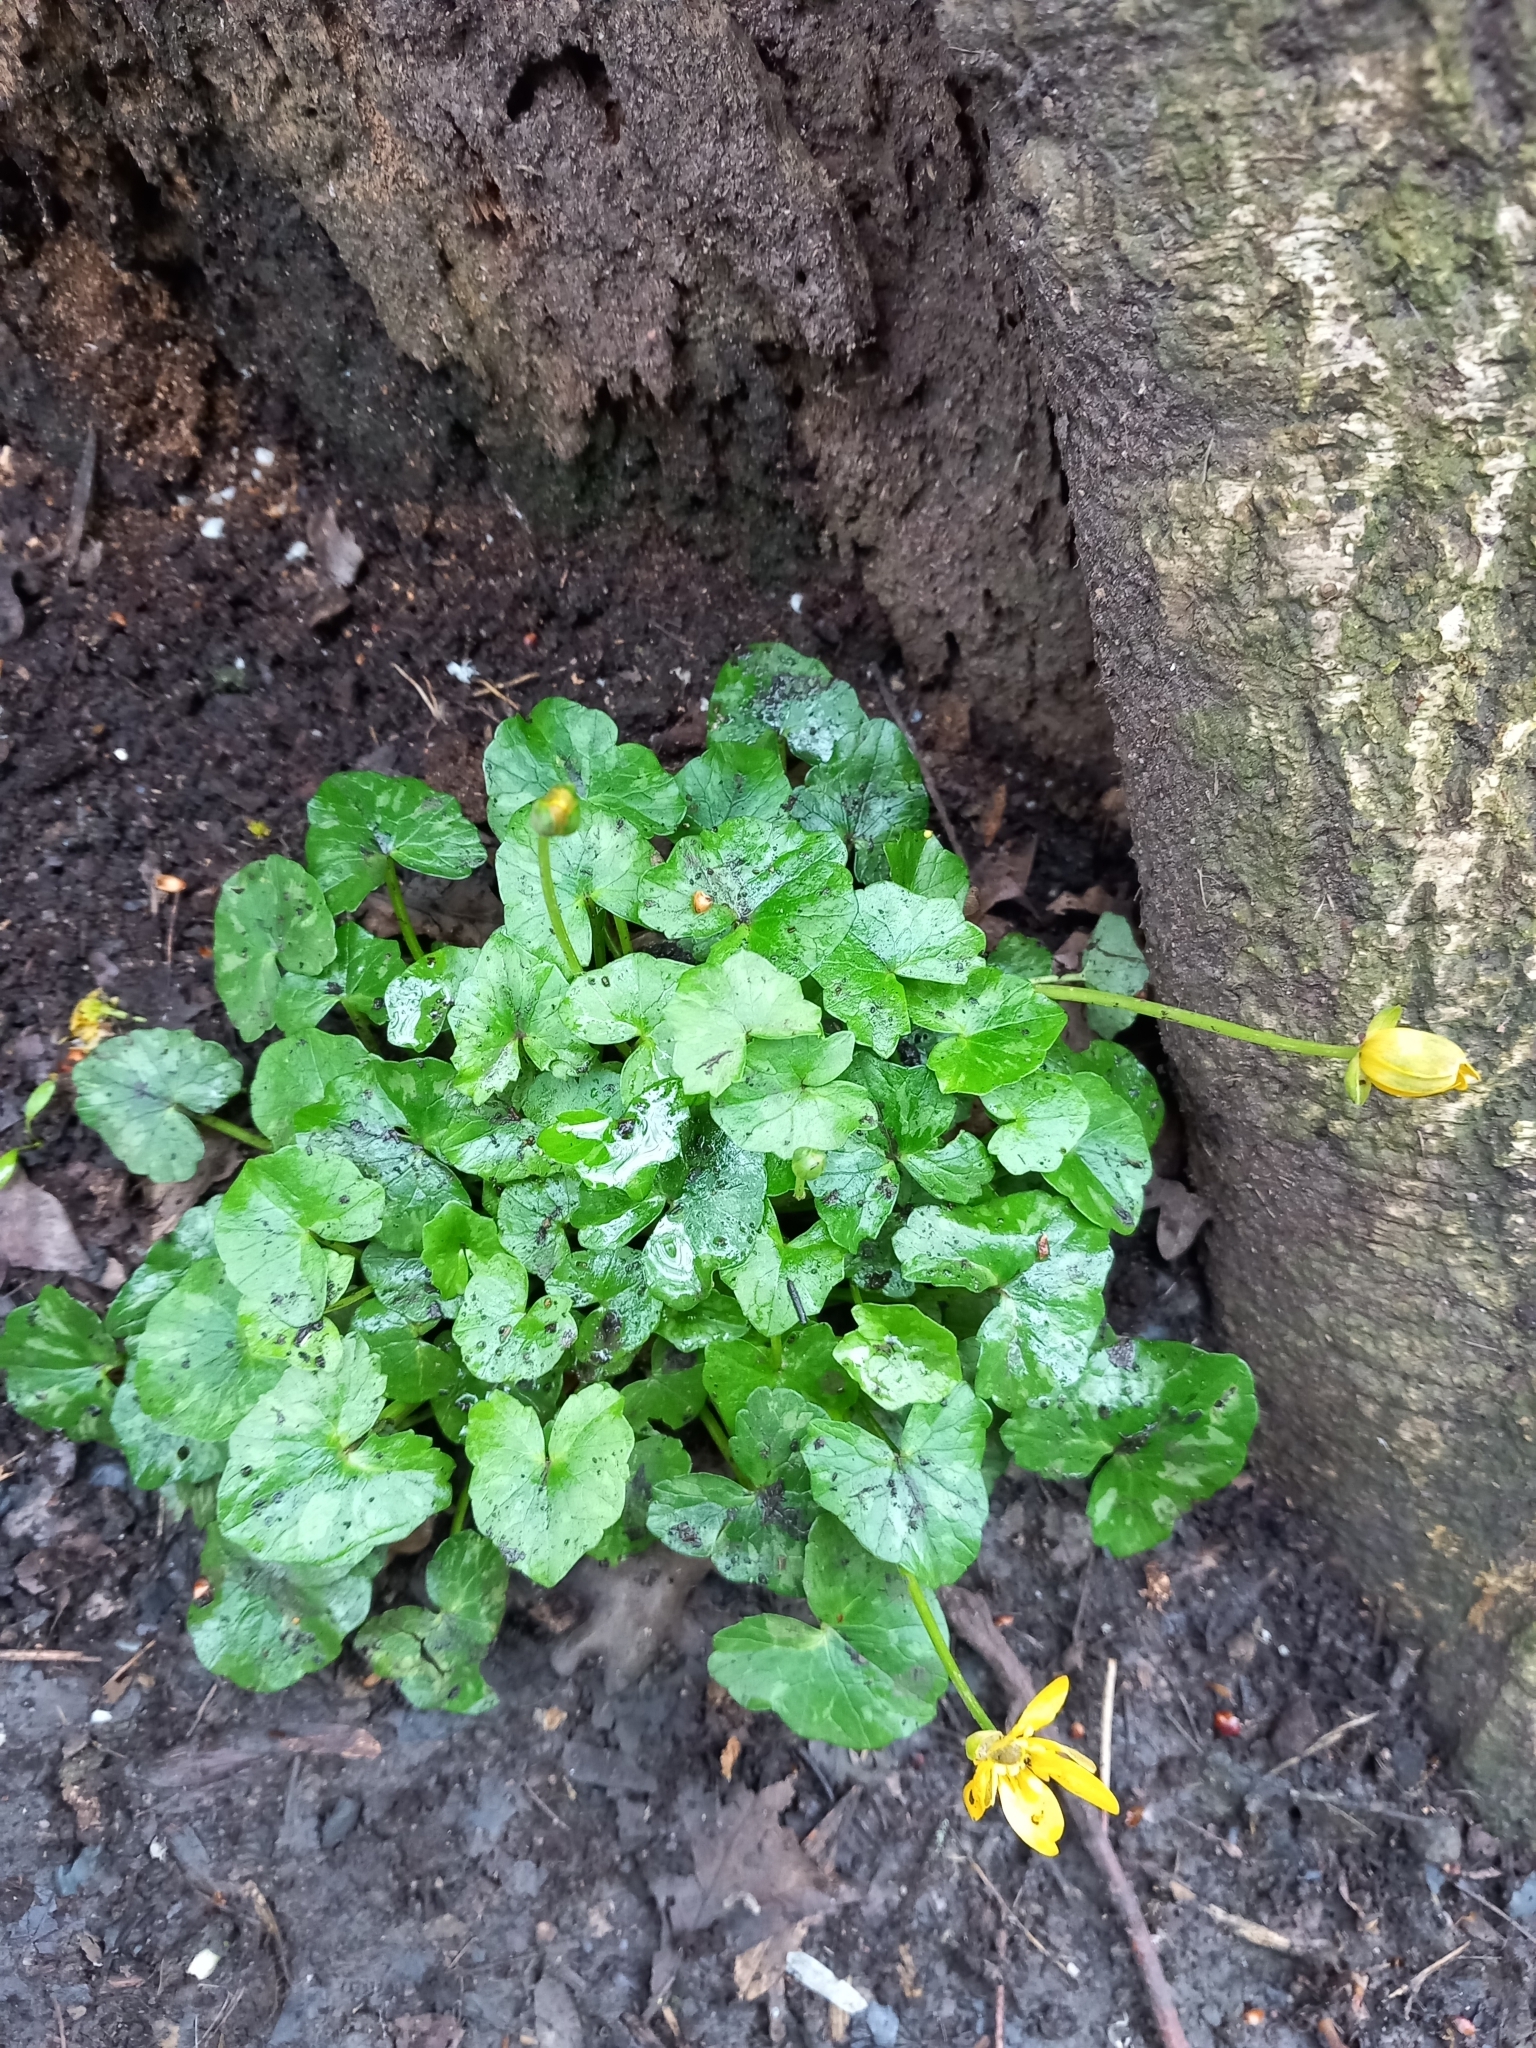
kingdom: Plantae
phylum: Tracheophyta
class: Magnoliopsida
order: Ranunculales
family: Ranunculaceae
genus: Ficaria
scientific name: Ficaria verna
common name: Lesser celandine
